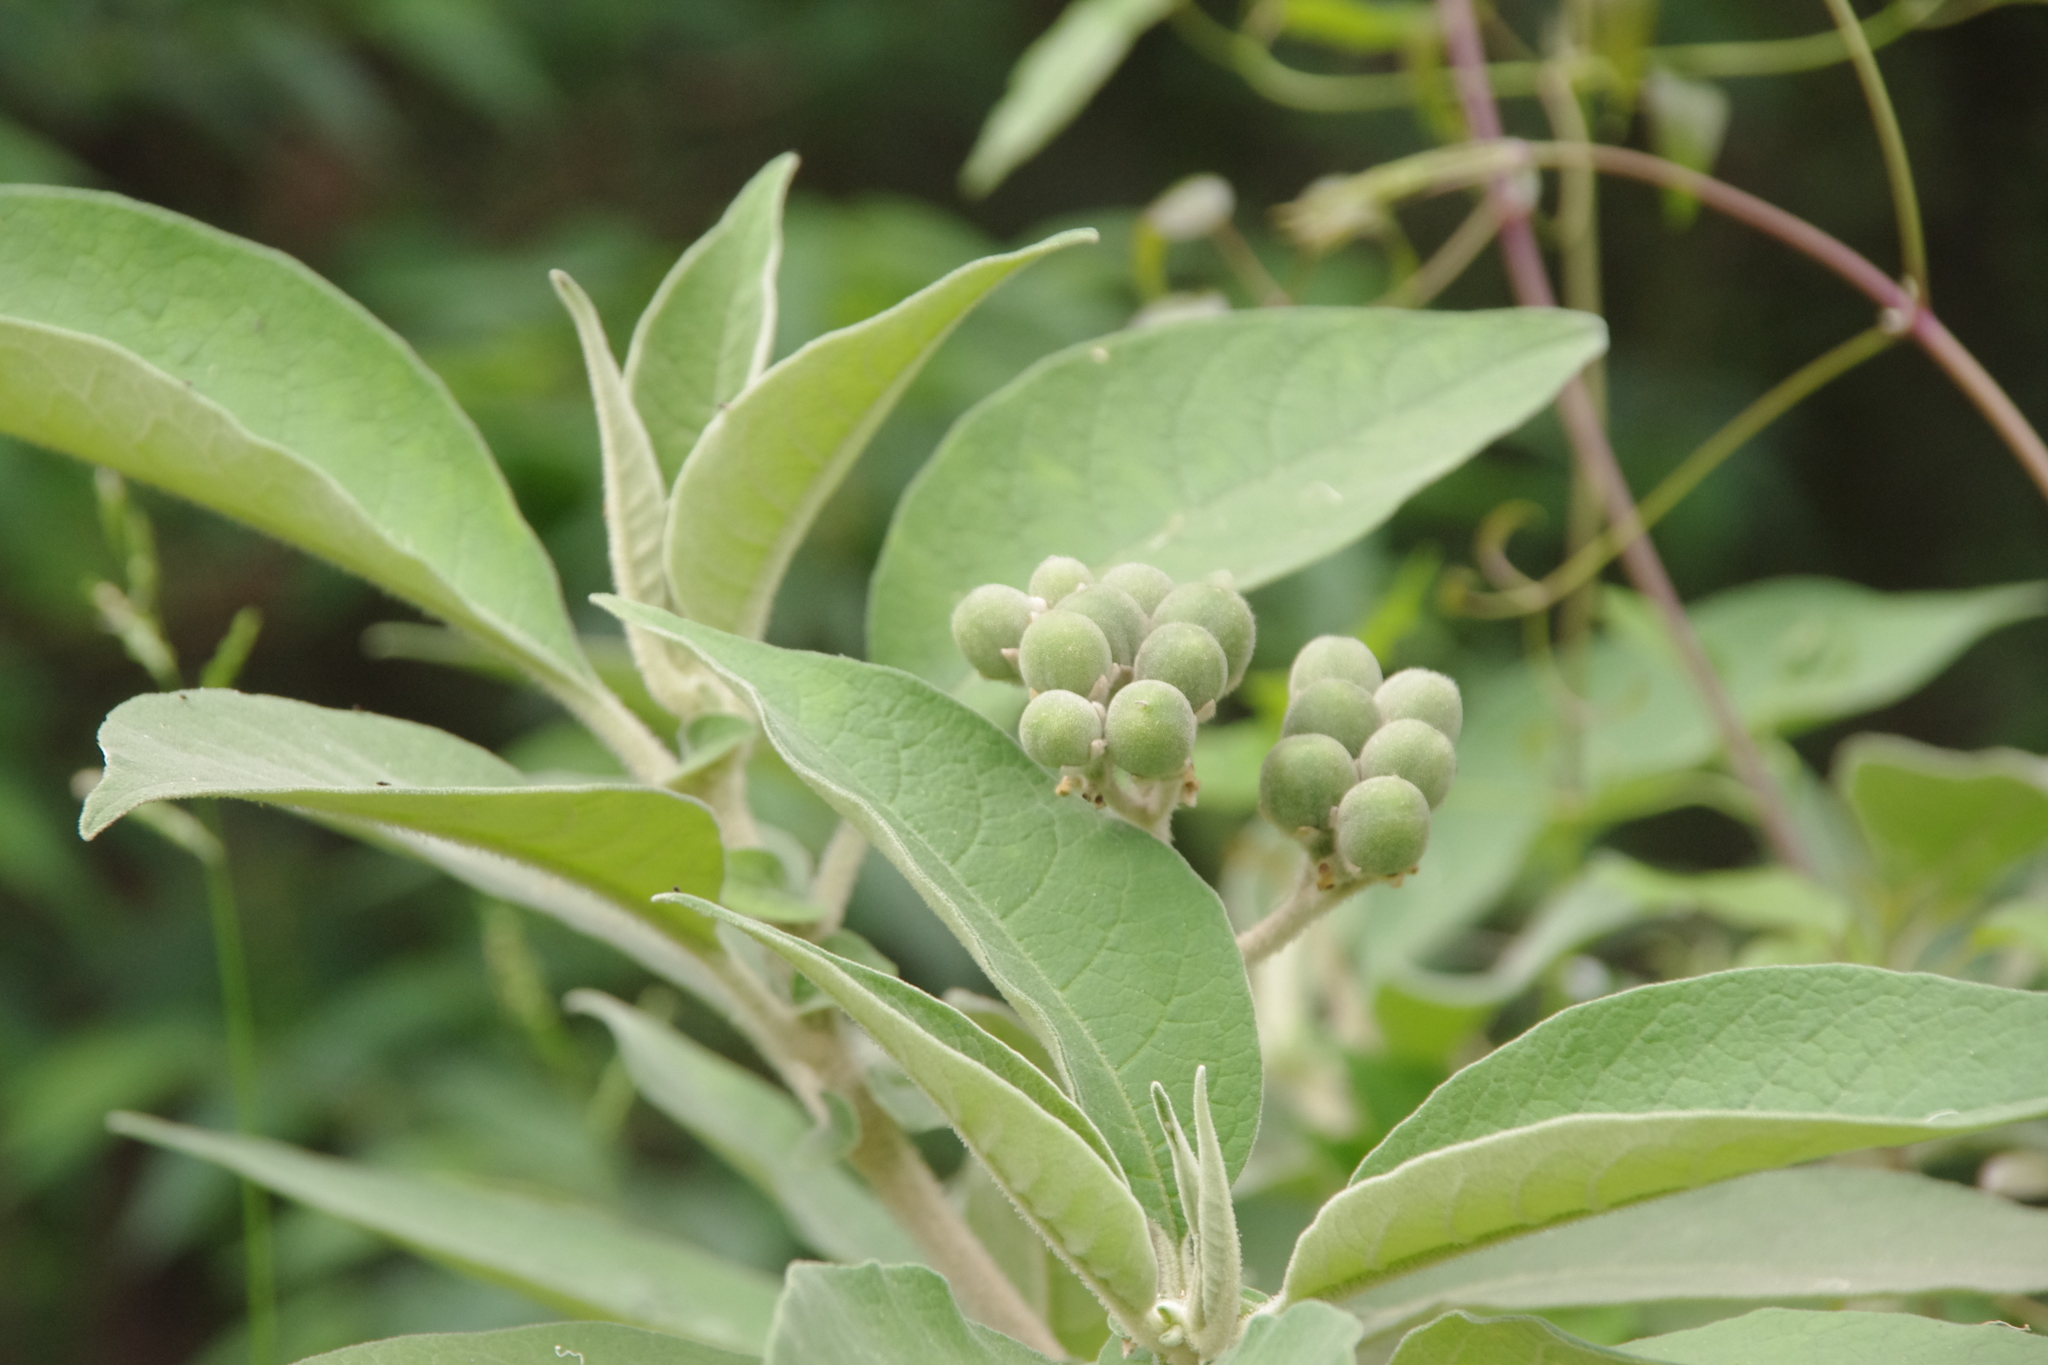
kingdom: Plantae
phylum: Tracheophyta
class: Magnoliopsida
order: Solanales
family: Solanaceae
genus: Solanum
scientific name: Solanum mauritianum
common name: Earleaf nightshade
